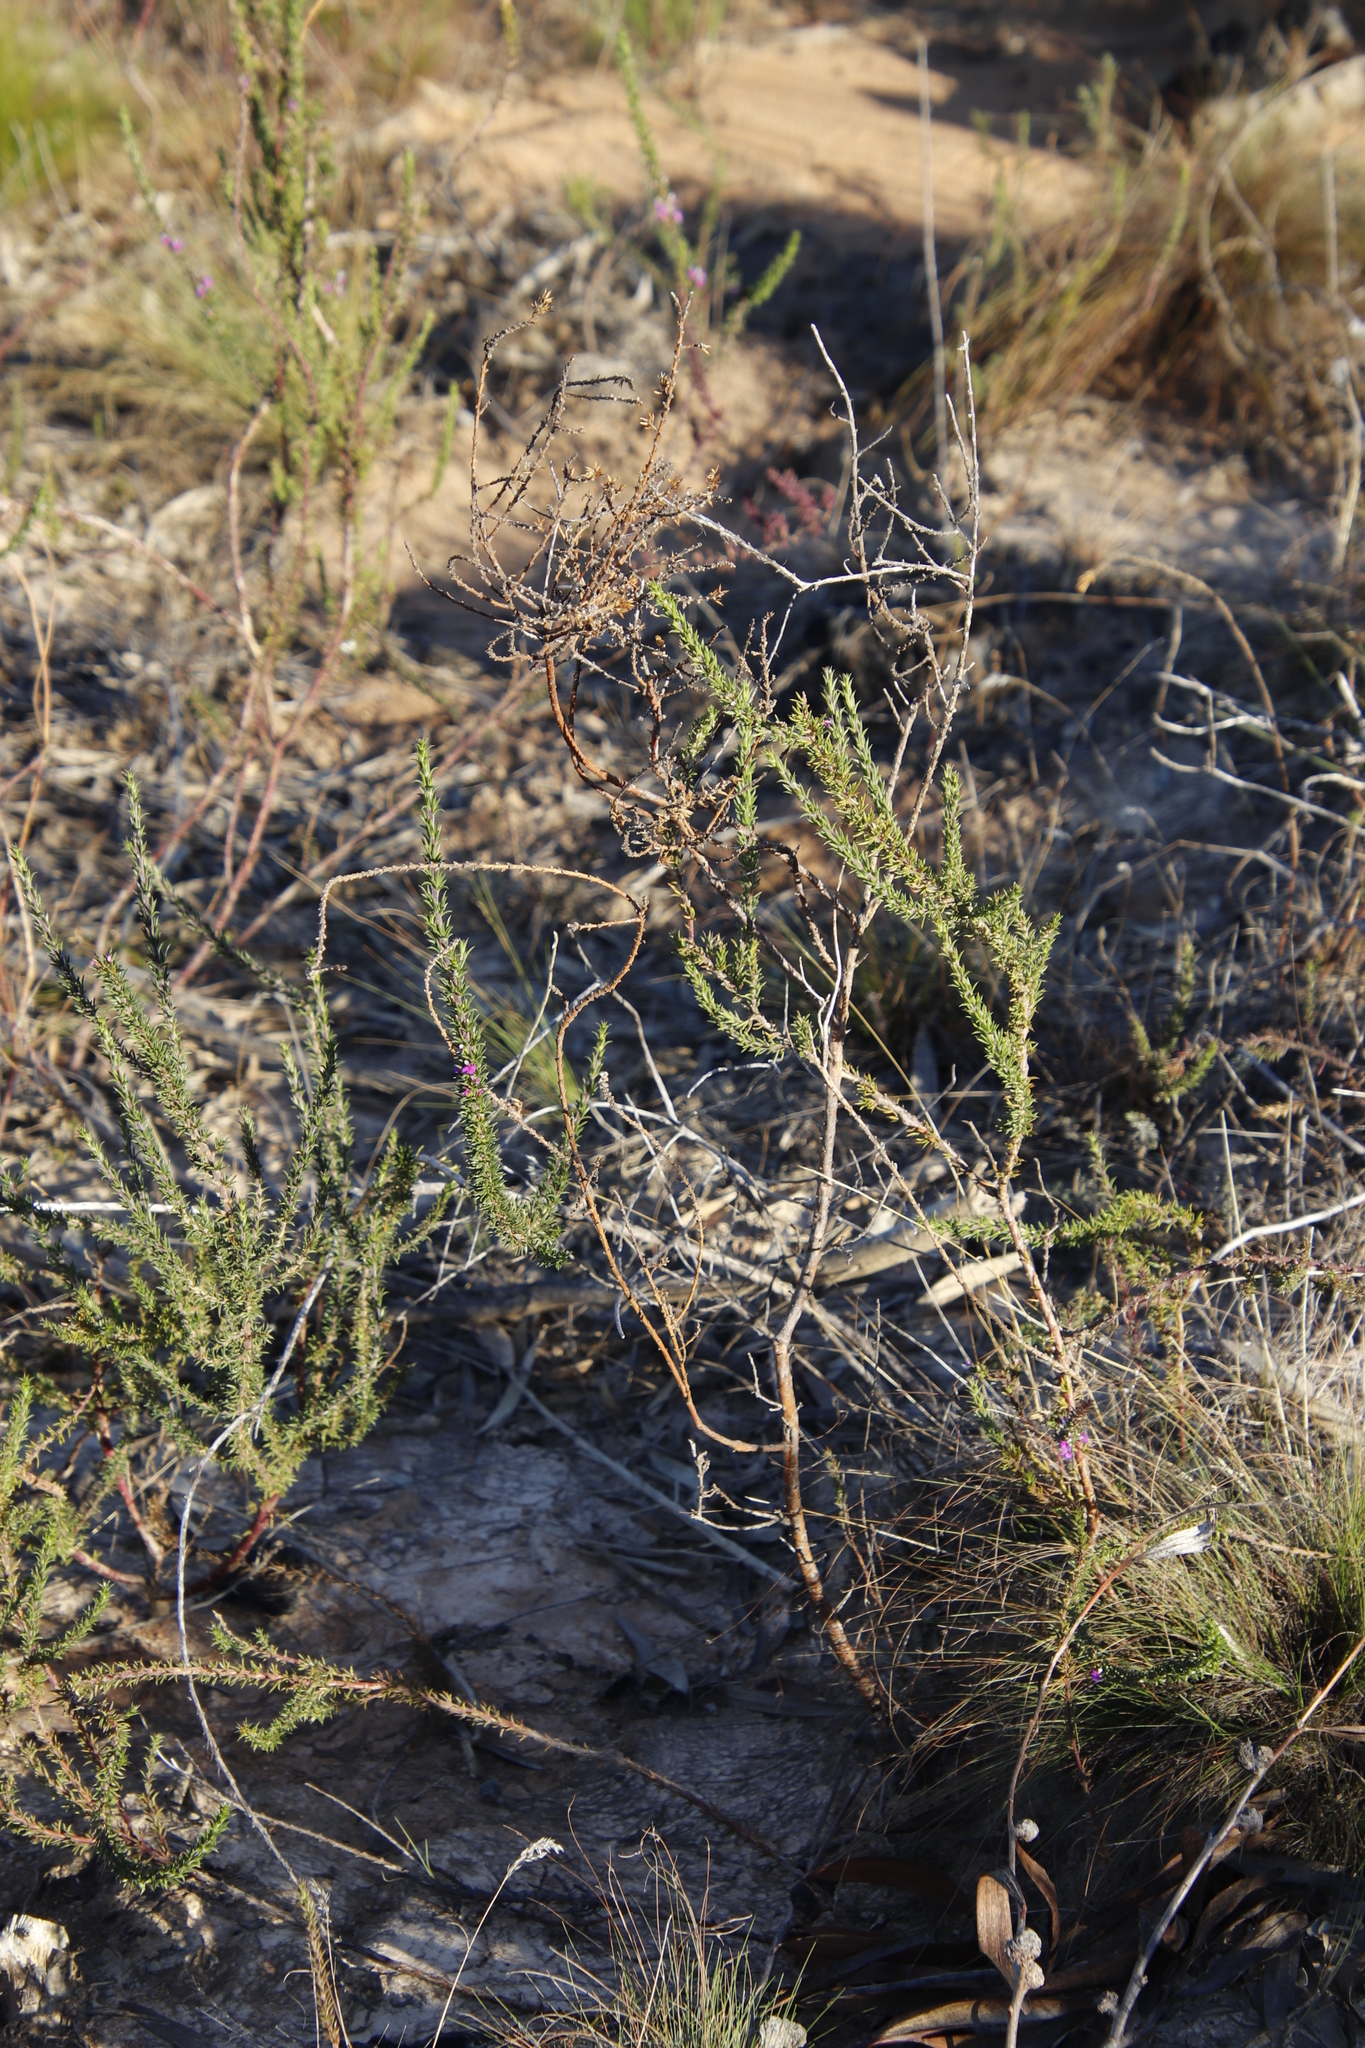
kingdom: Plantae
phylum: Tracheophyta
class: Magnoliopsida
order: Fabales
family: Polygalaceae
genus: Muraltia
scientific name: Muraltia heisteria
